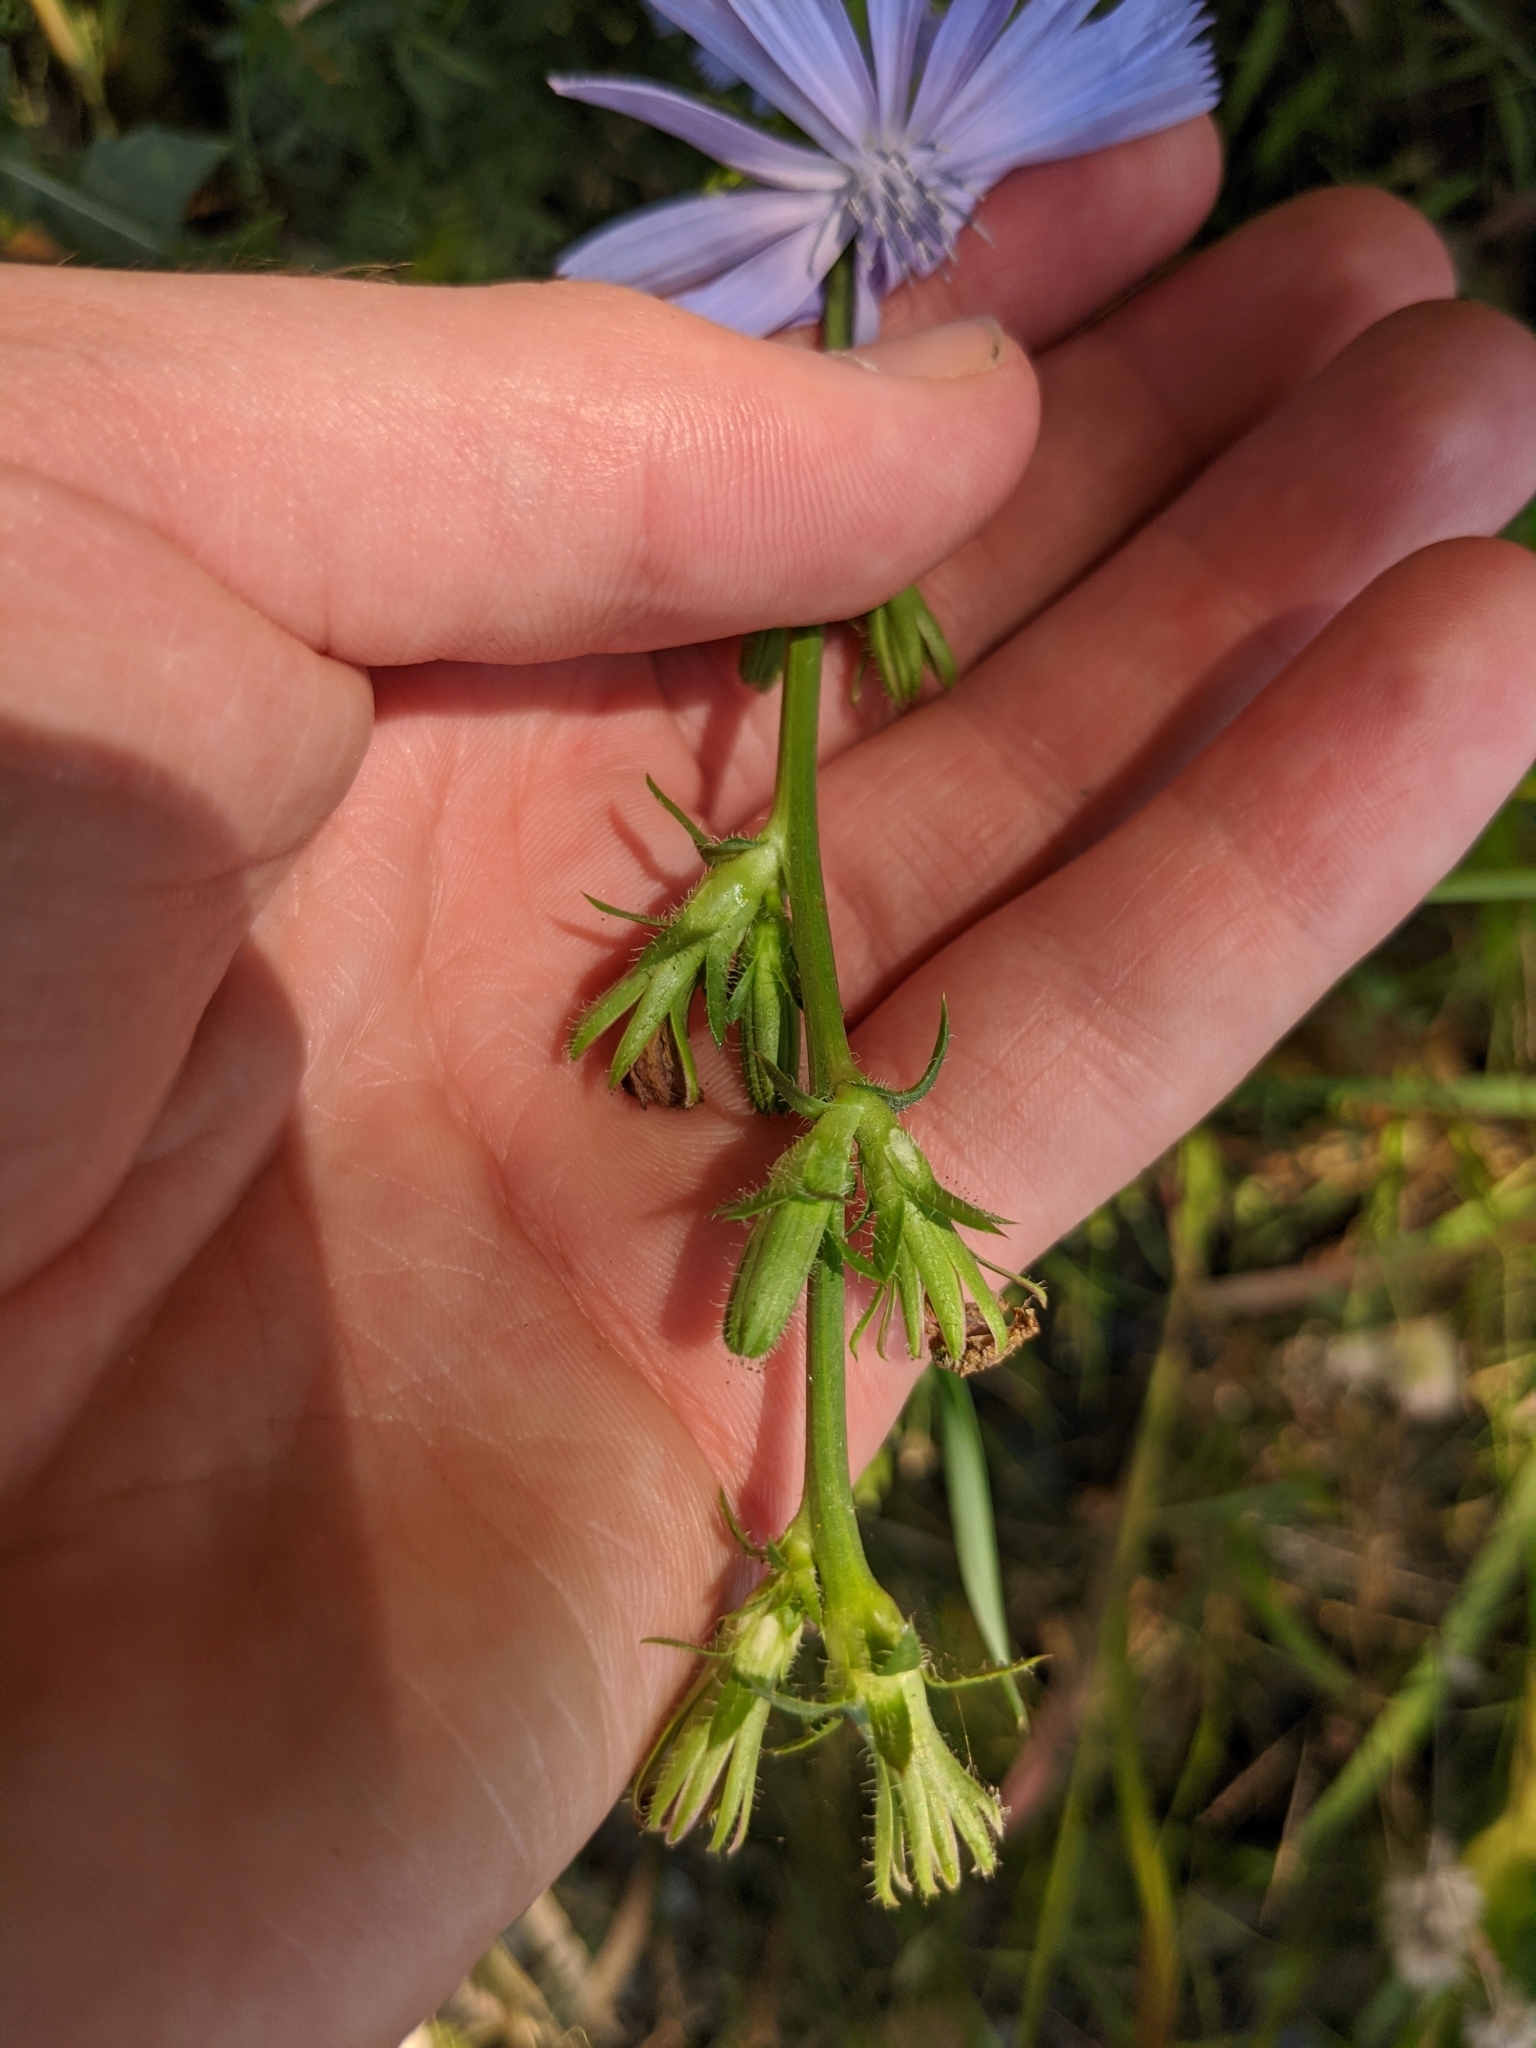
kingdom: Plantae
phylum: Tracheophyta
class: Magnoliopsida
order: Asterales
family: Asteraceae
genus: Cichorium
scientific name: Cichorium intybus
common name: Chicory
